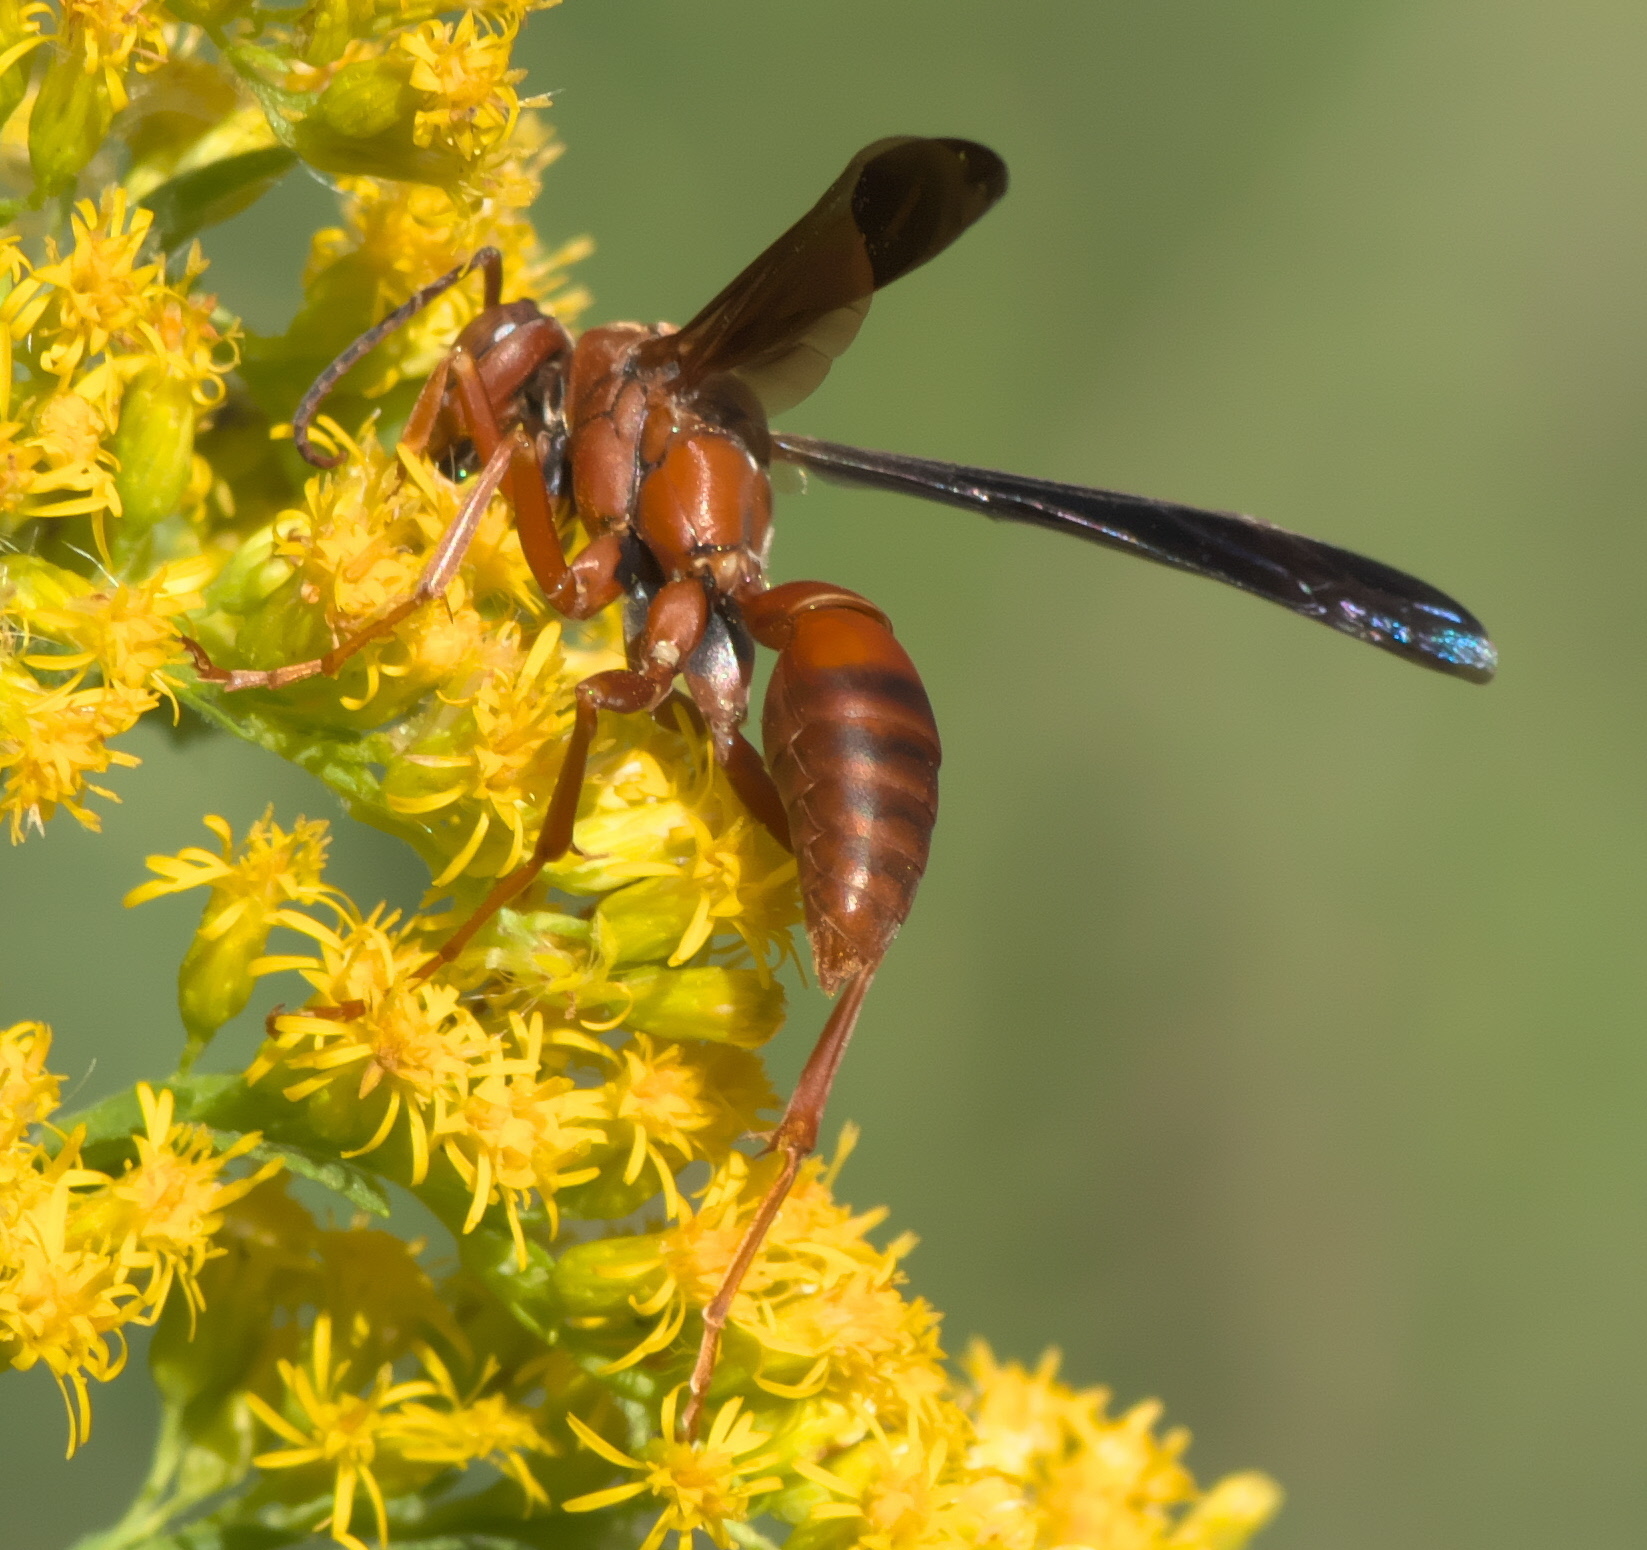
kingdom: Animalia
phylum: Arthropoda
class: Insecta
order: Hymenoptera
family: Eumenidae
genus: Polistes
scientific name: Polistes carolina
